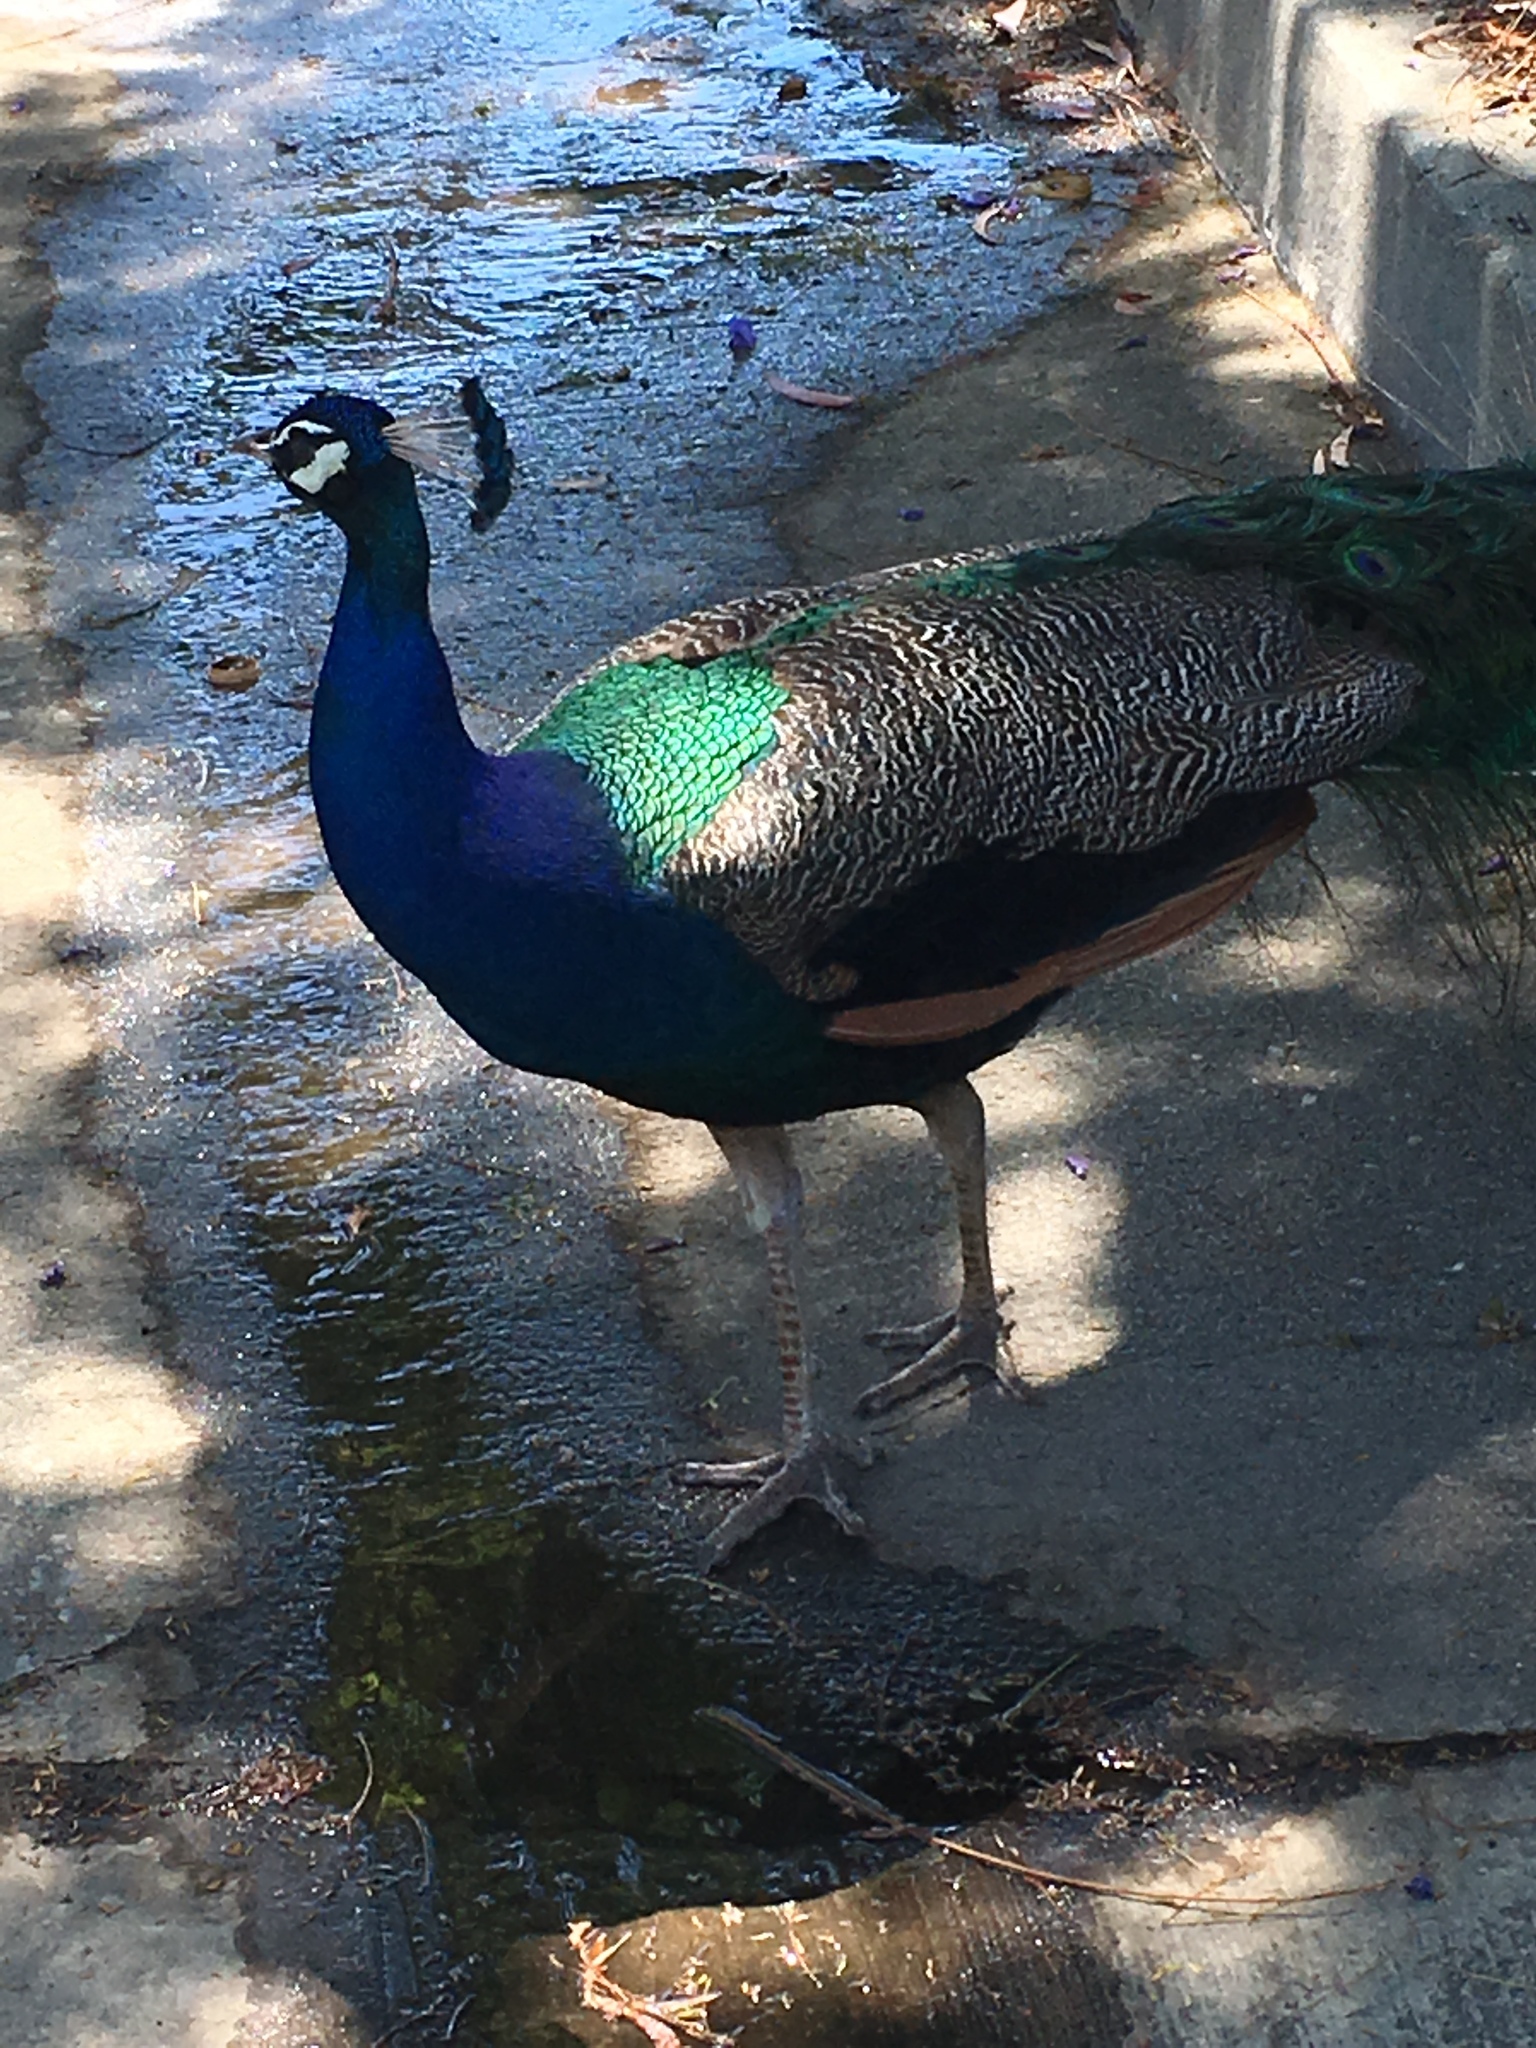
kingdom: Animalia
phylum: Chordata
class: Aves
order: Galliformes
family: Phasianidae
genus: Pavo
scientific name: Pavo cristatus
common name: Indian peafowl
